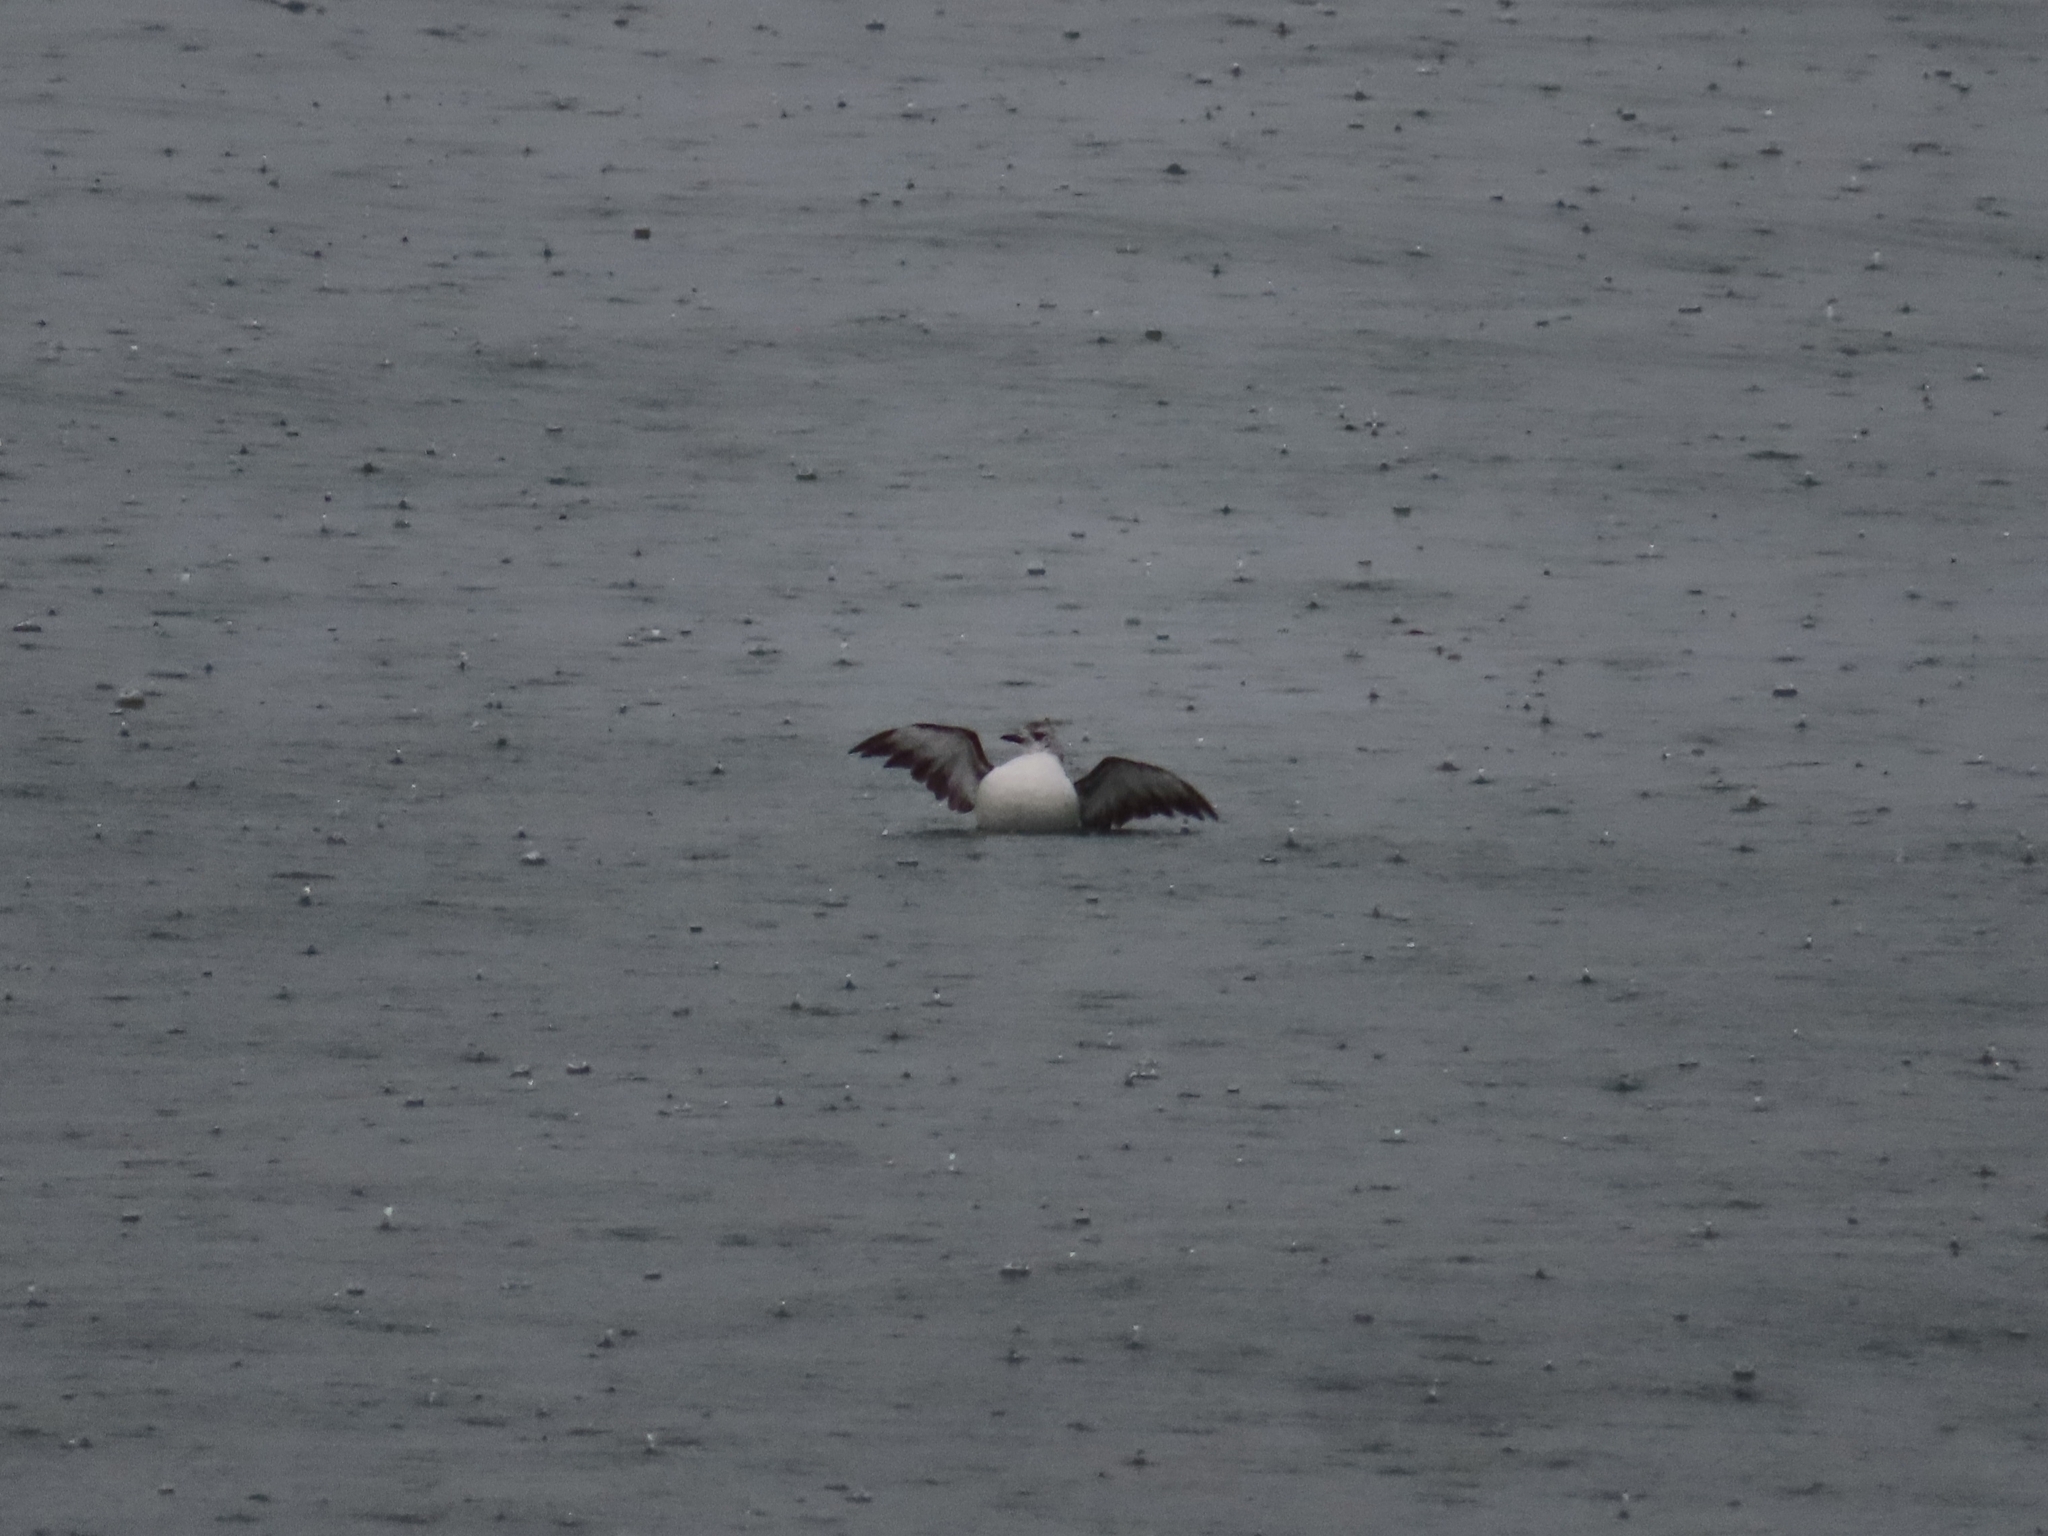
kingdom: Animalia
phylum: Chordata
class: Aves
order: Charadriiformes
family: Alcidae
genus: Cepphus
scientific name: Cepphus grylle
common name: Black guillemot
